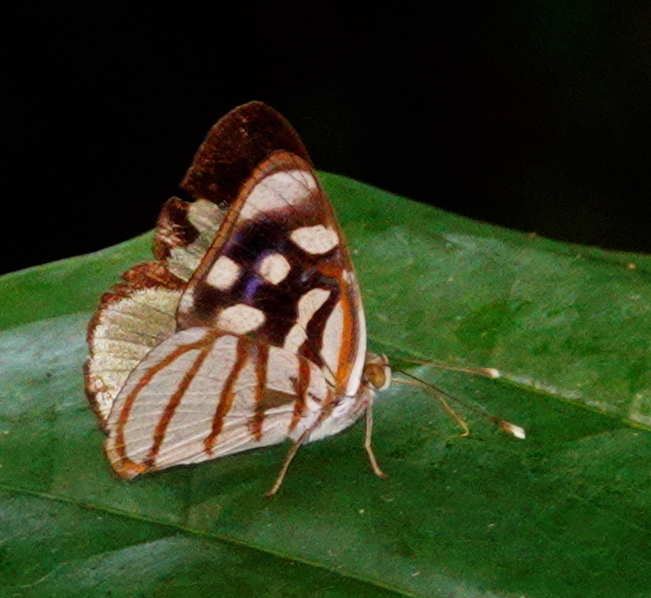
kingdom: Animalia
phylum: Arthropoda
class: Insecta
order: Lepidoptera
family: Nymphalidae
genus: Dynamine
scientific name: Dynamine chryseis
